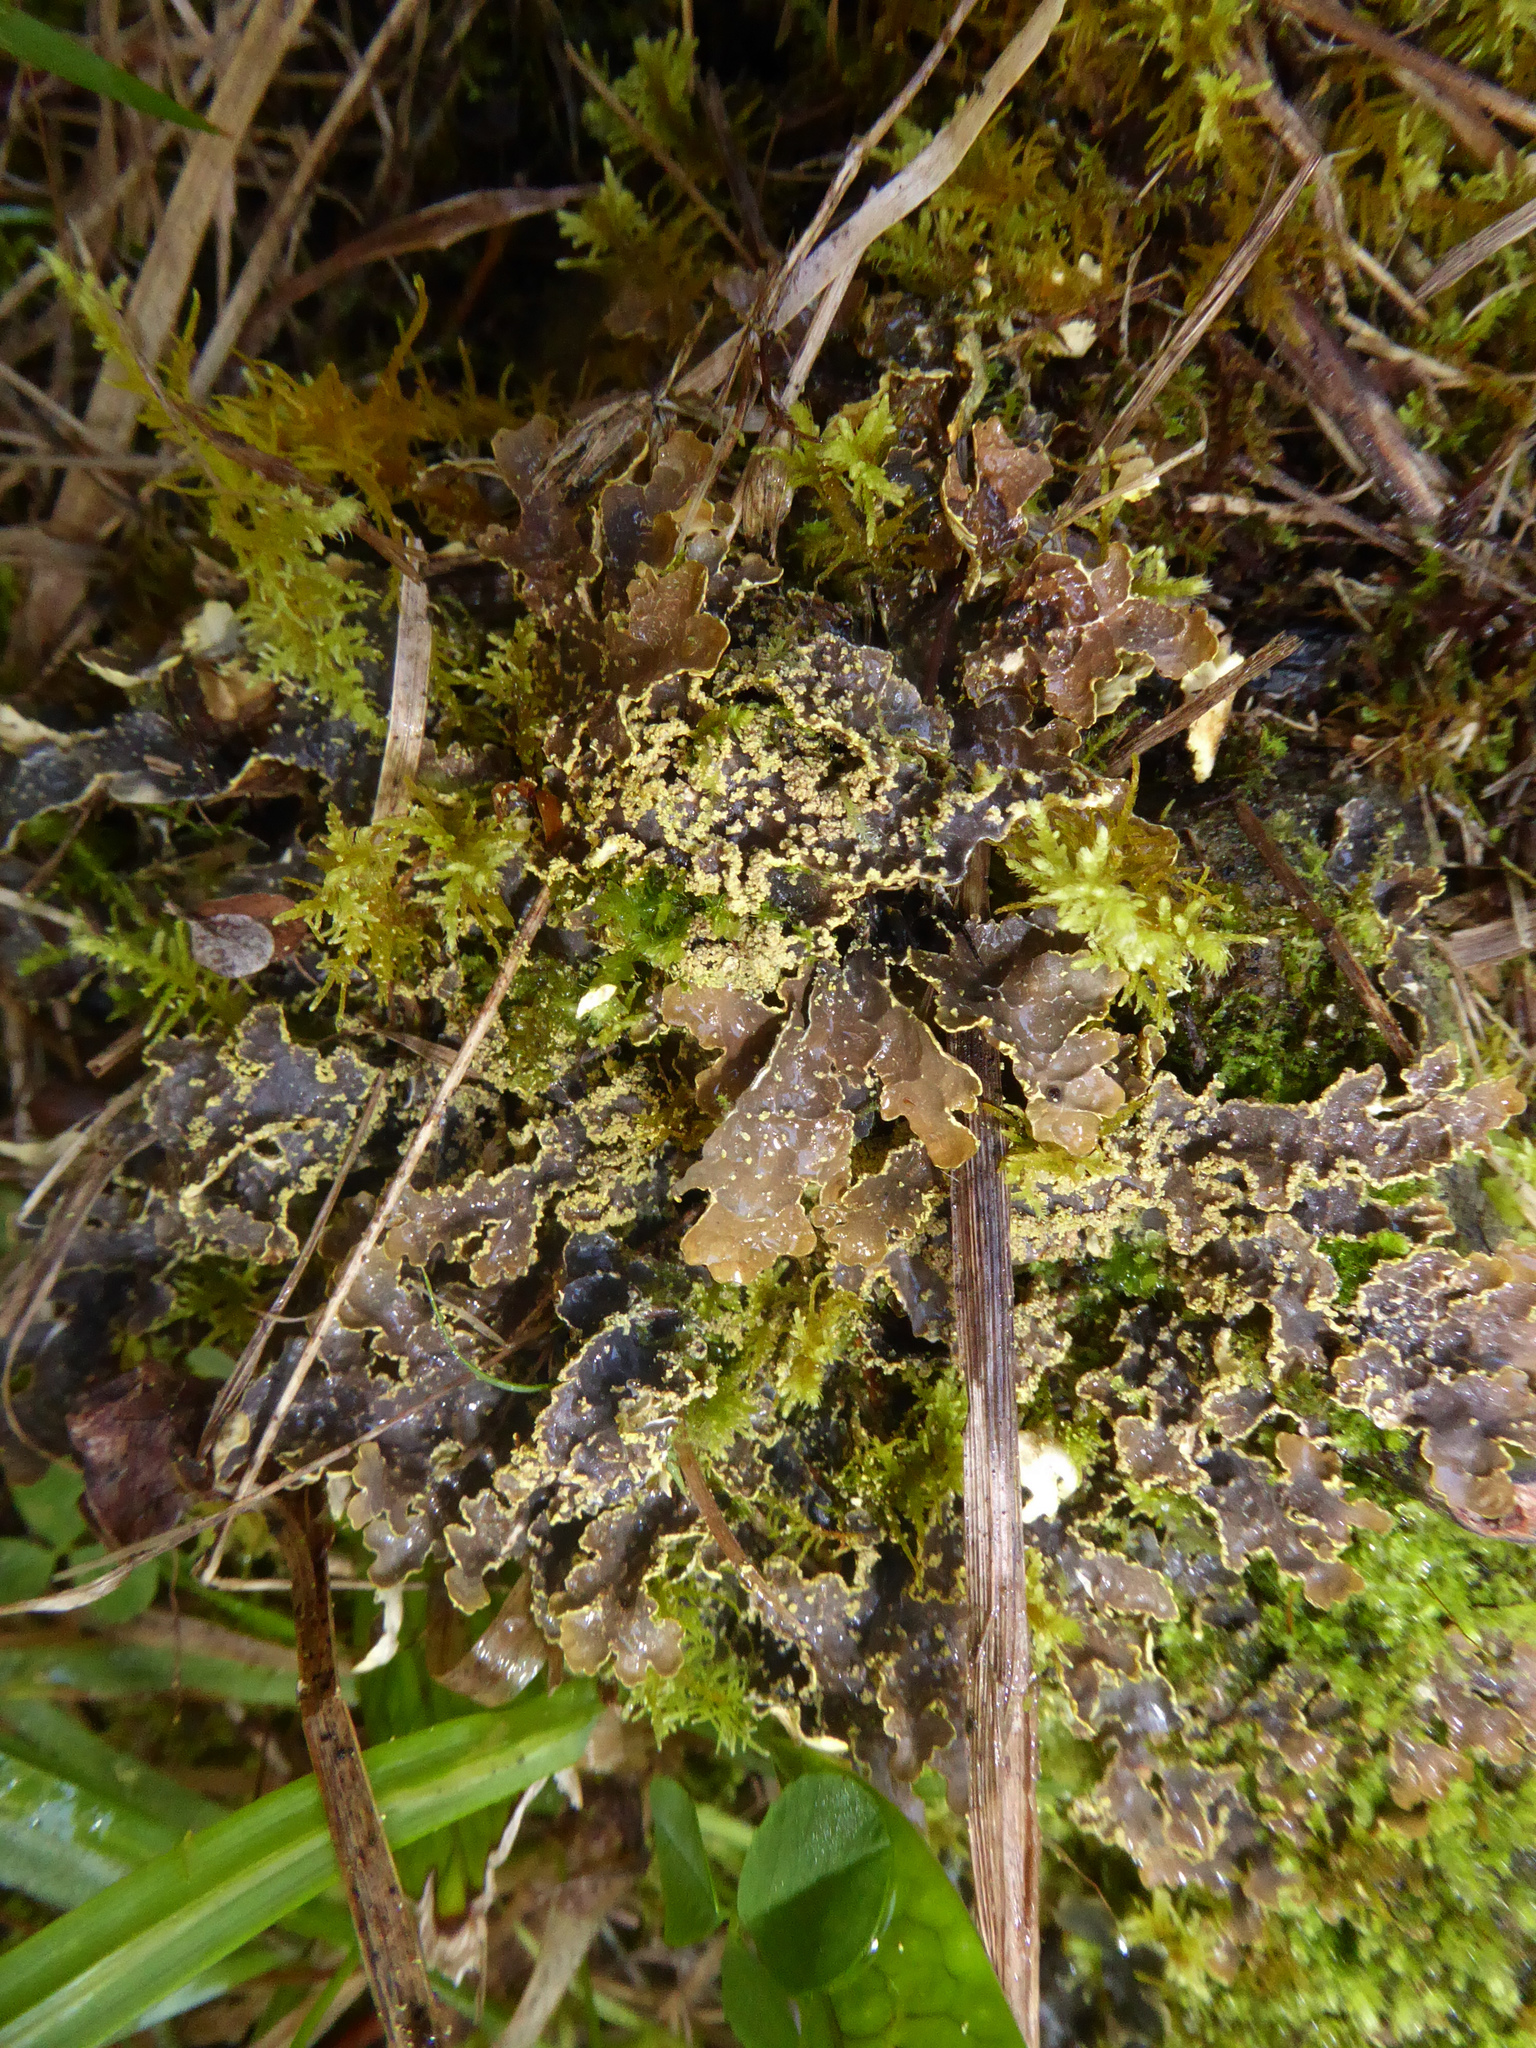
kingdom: Fungi
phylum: Ascomycota
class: Lecanoromycetes
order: Peltigerales
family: Lobariaceae
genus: Pseudocyphellaria
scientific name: Pseudocyphellaria crocata
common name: Golden specklebelly
